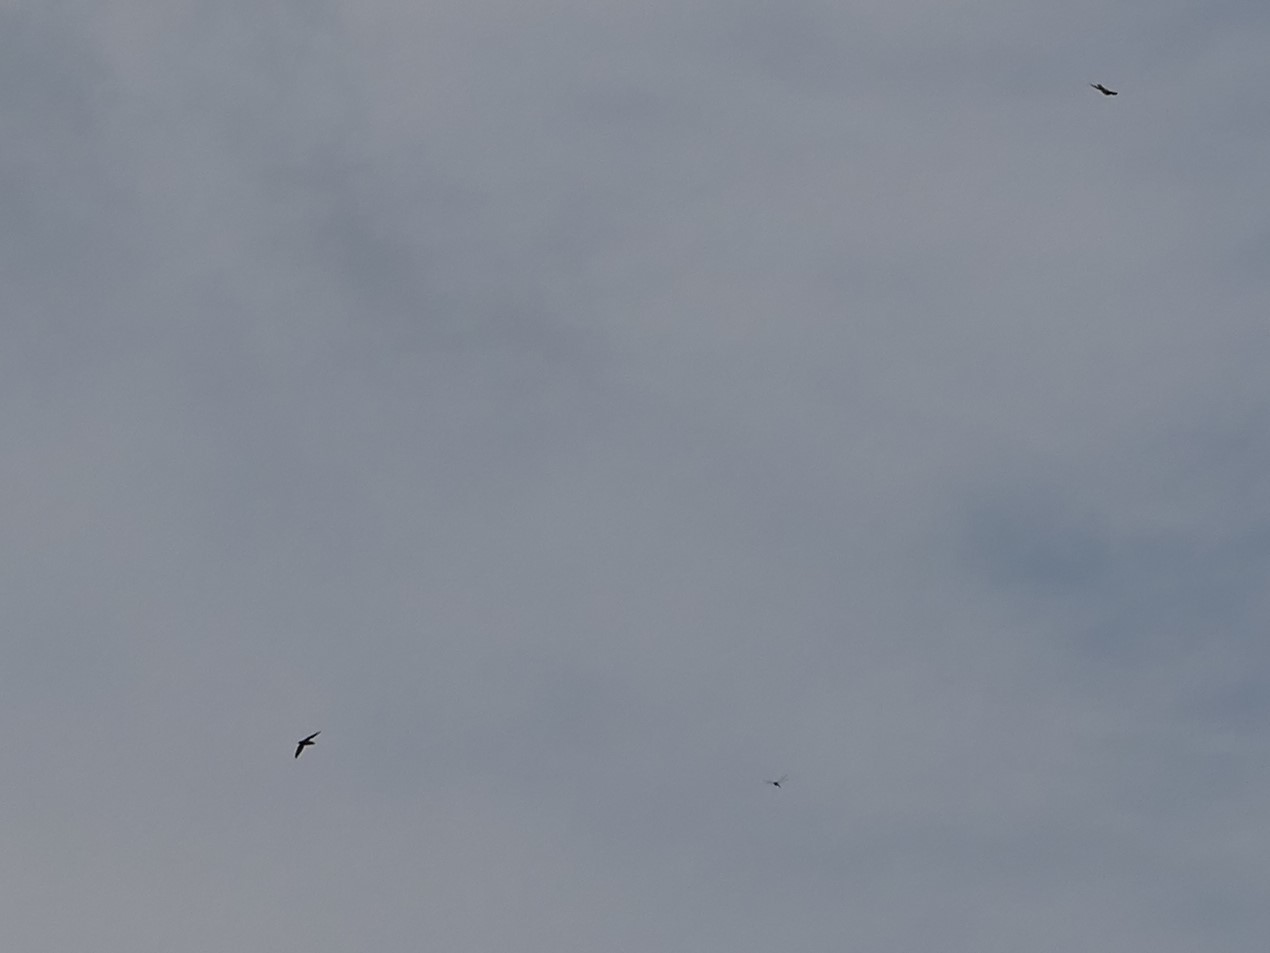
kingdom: Animalia
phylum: Chordata
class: Aves
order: Apodiformes
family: Apodidae
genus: Chaetura
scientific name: Chaetura pelagica
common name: Chimney swift
